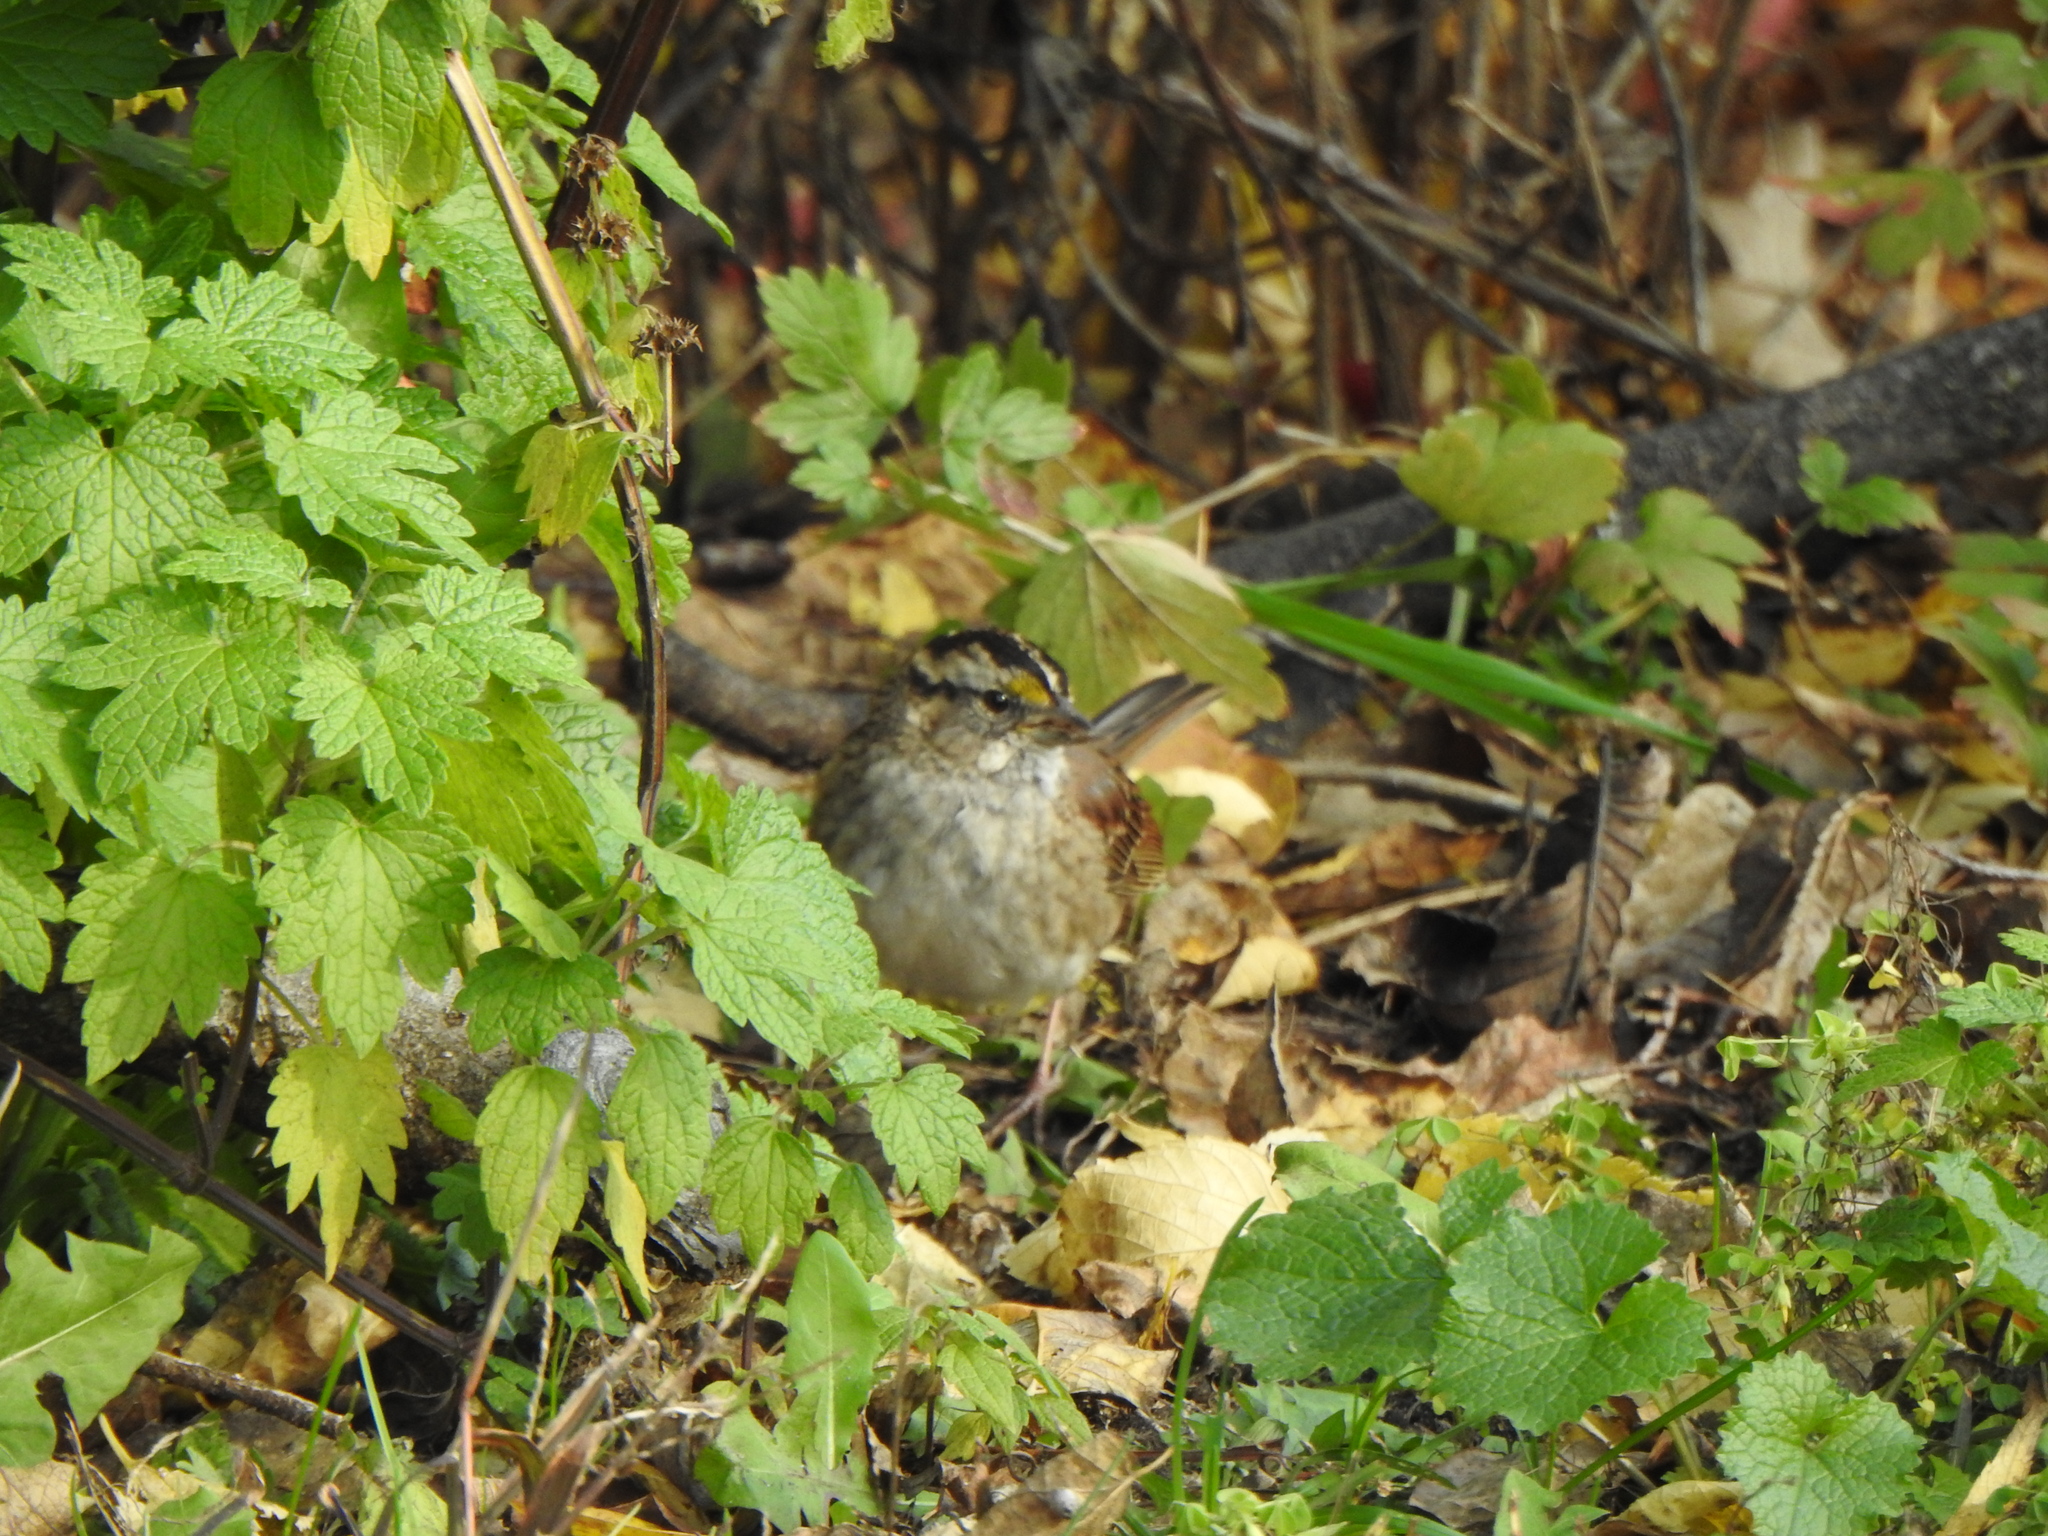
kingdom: Animalia
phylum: Chordata
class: Aves
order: Passeriformes
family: Passerellidae
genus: Zonotrichia
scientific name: Zonotrichia albicollis
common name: White-throated sparrow
